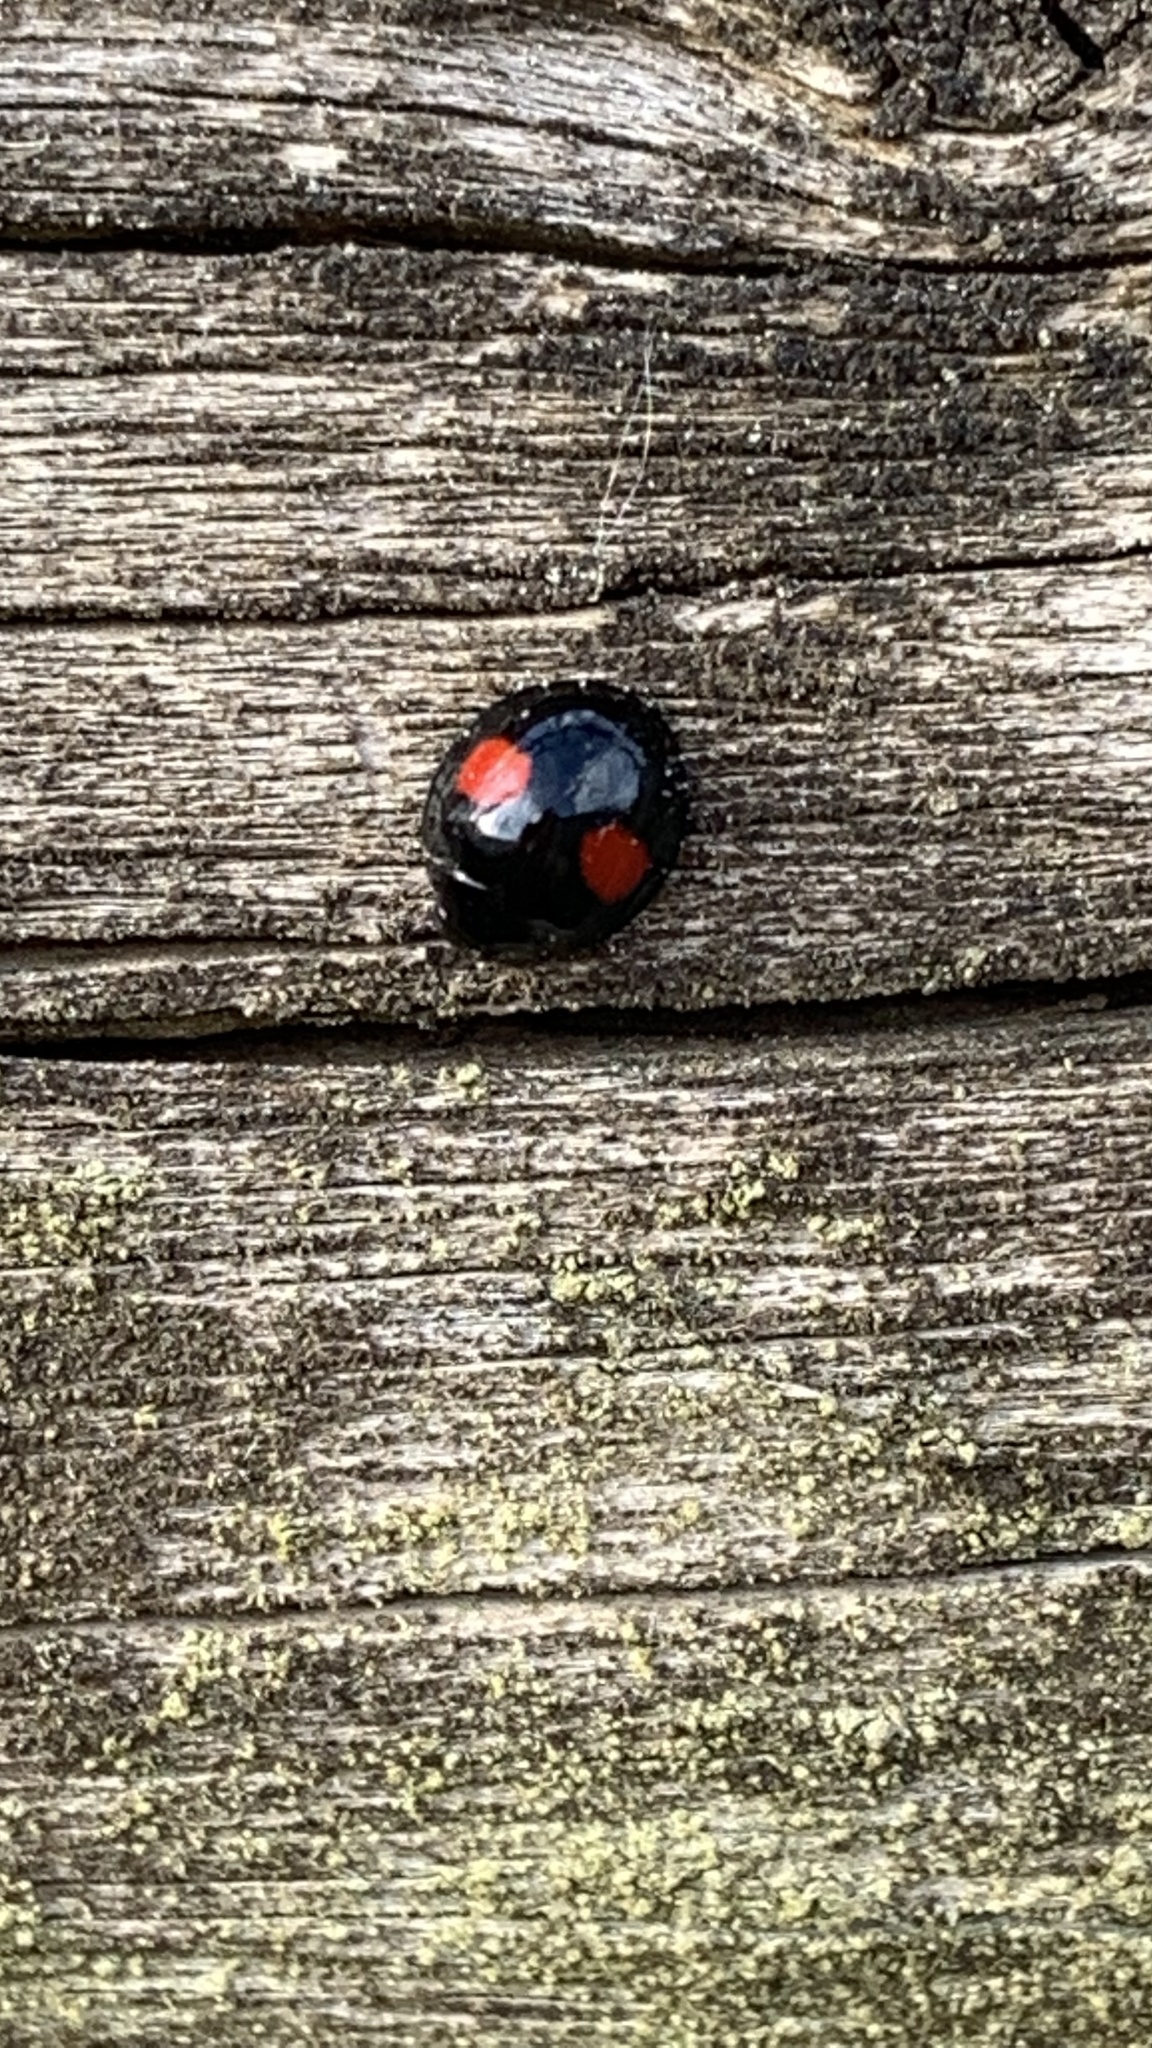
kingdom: Animalia
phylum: Arthropoda
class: Insecta
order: Coleoptera
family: Coccinellidae
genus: Chilocorus
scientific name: Chilocorus renipustulatus
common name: Kidney-spot ladybird
